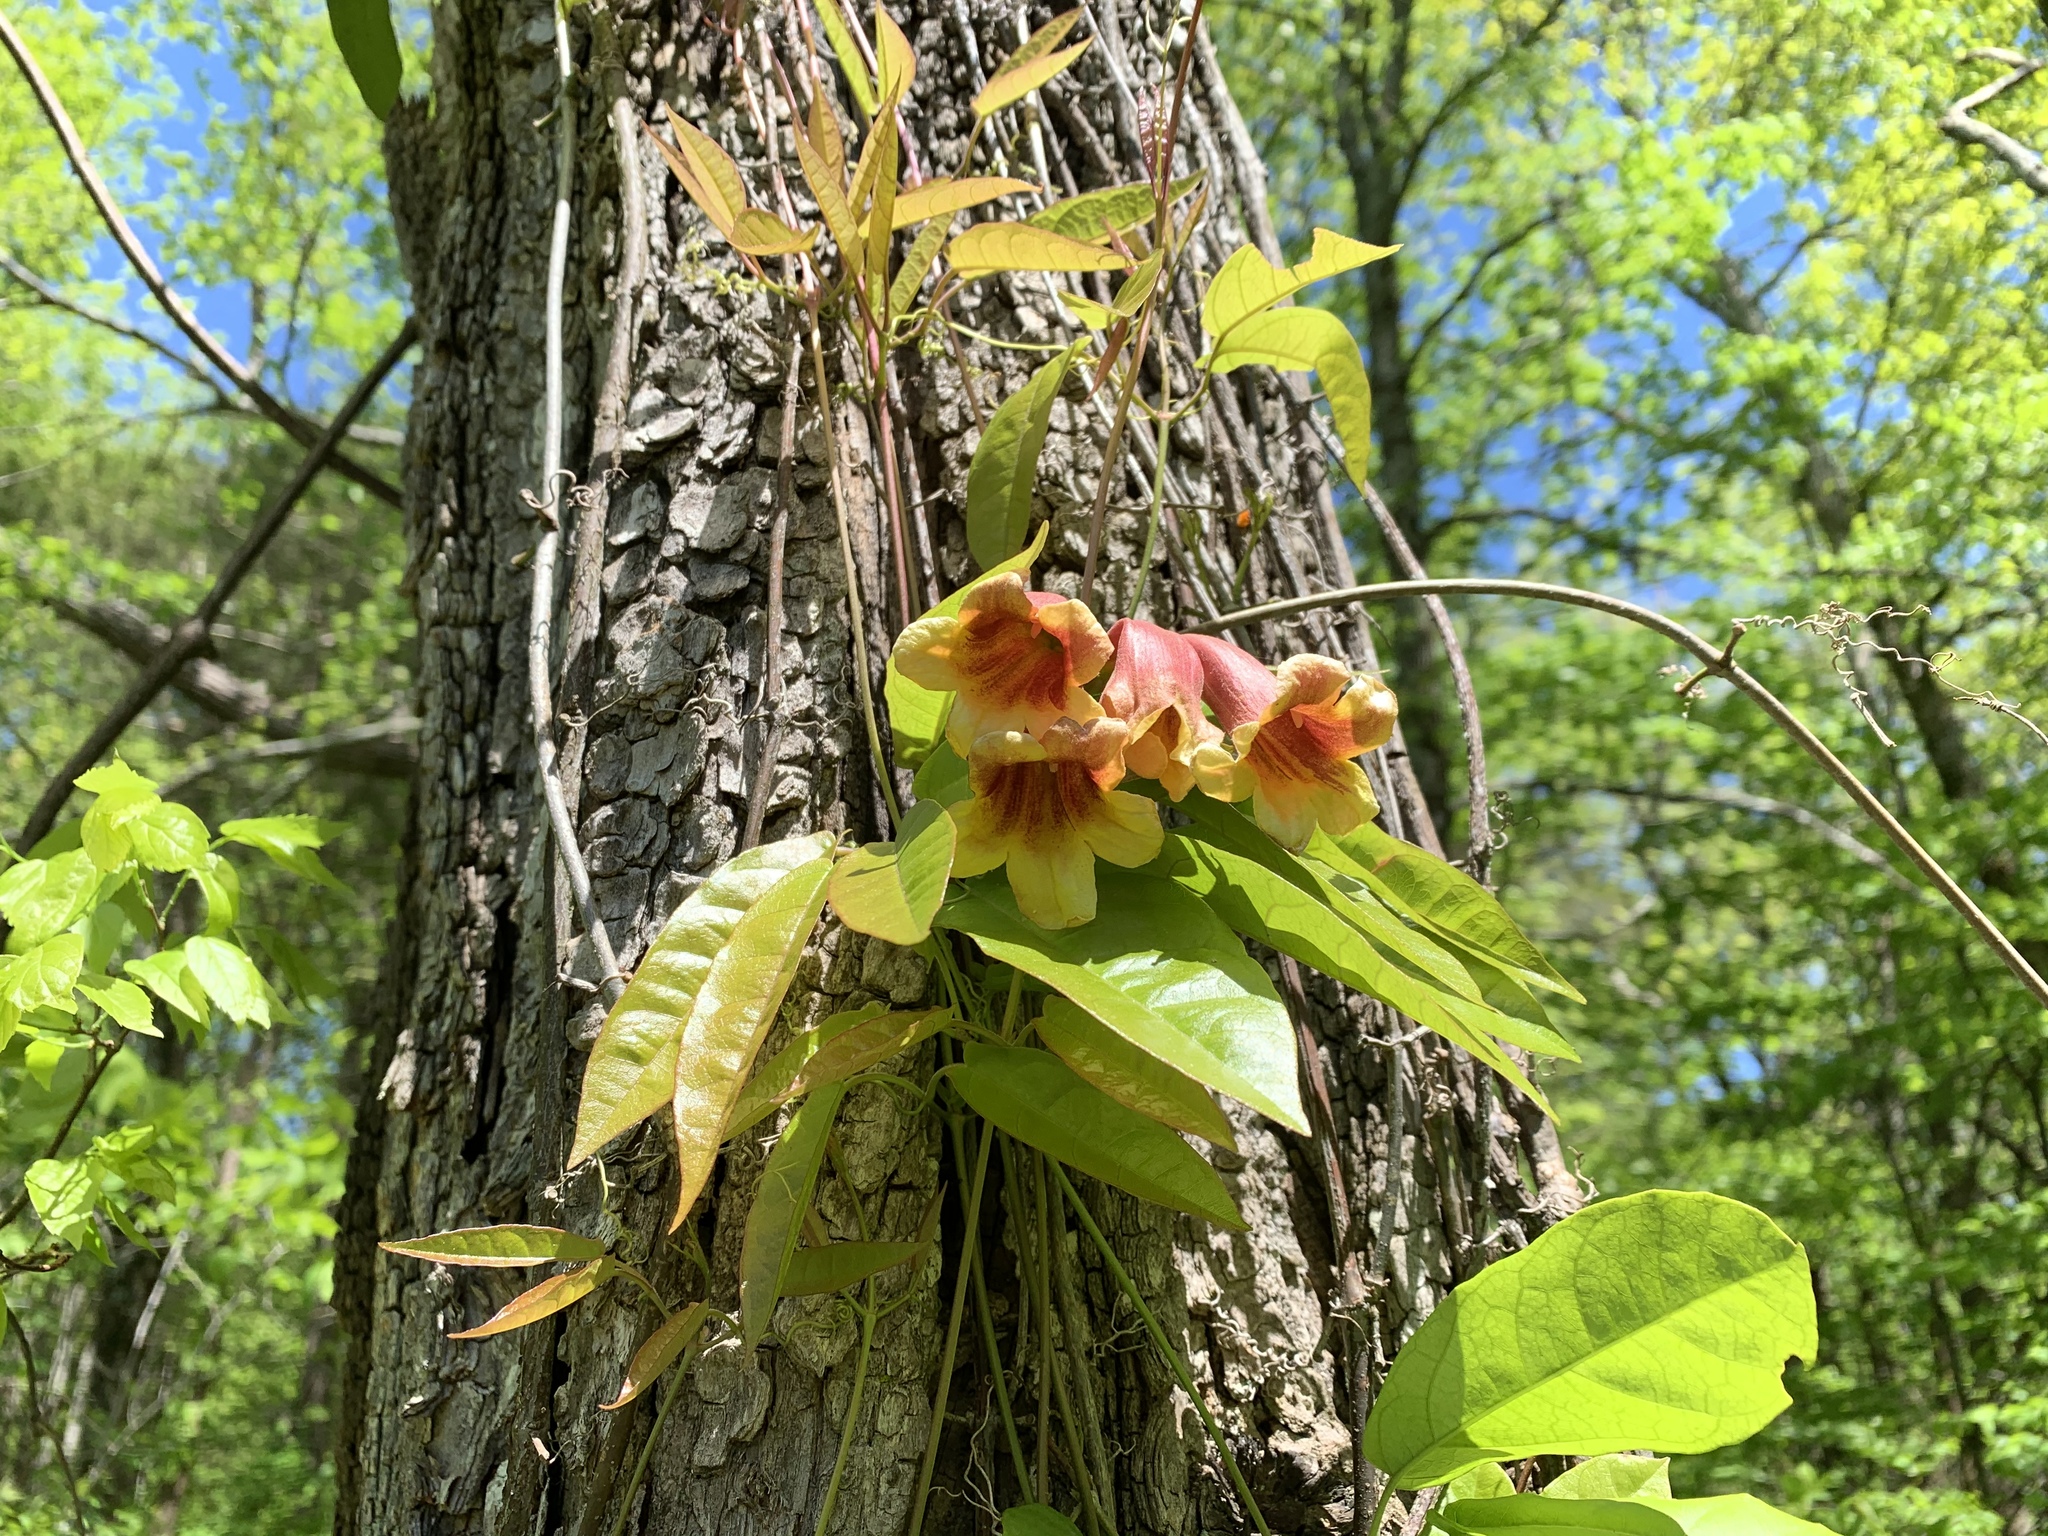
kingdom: Plantae
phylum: Tracheophyta
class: Magnoliopsida
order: Lamiales
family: Bignoniaceae
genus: Bignonia
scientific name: Bignonia capreolata
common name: Crossvine
